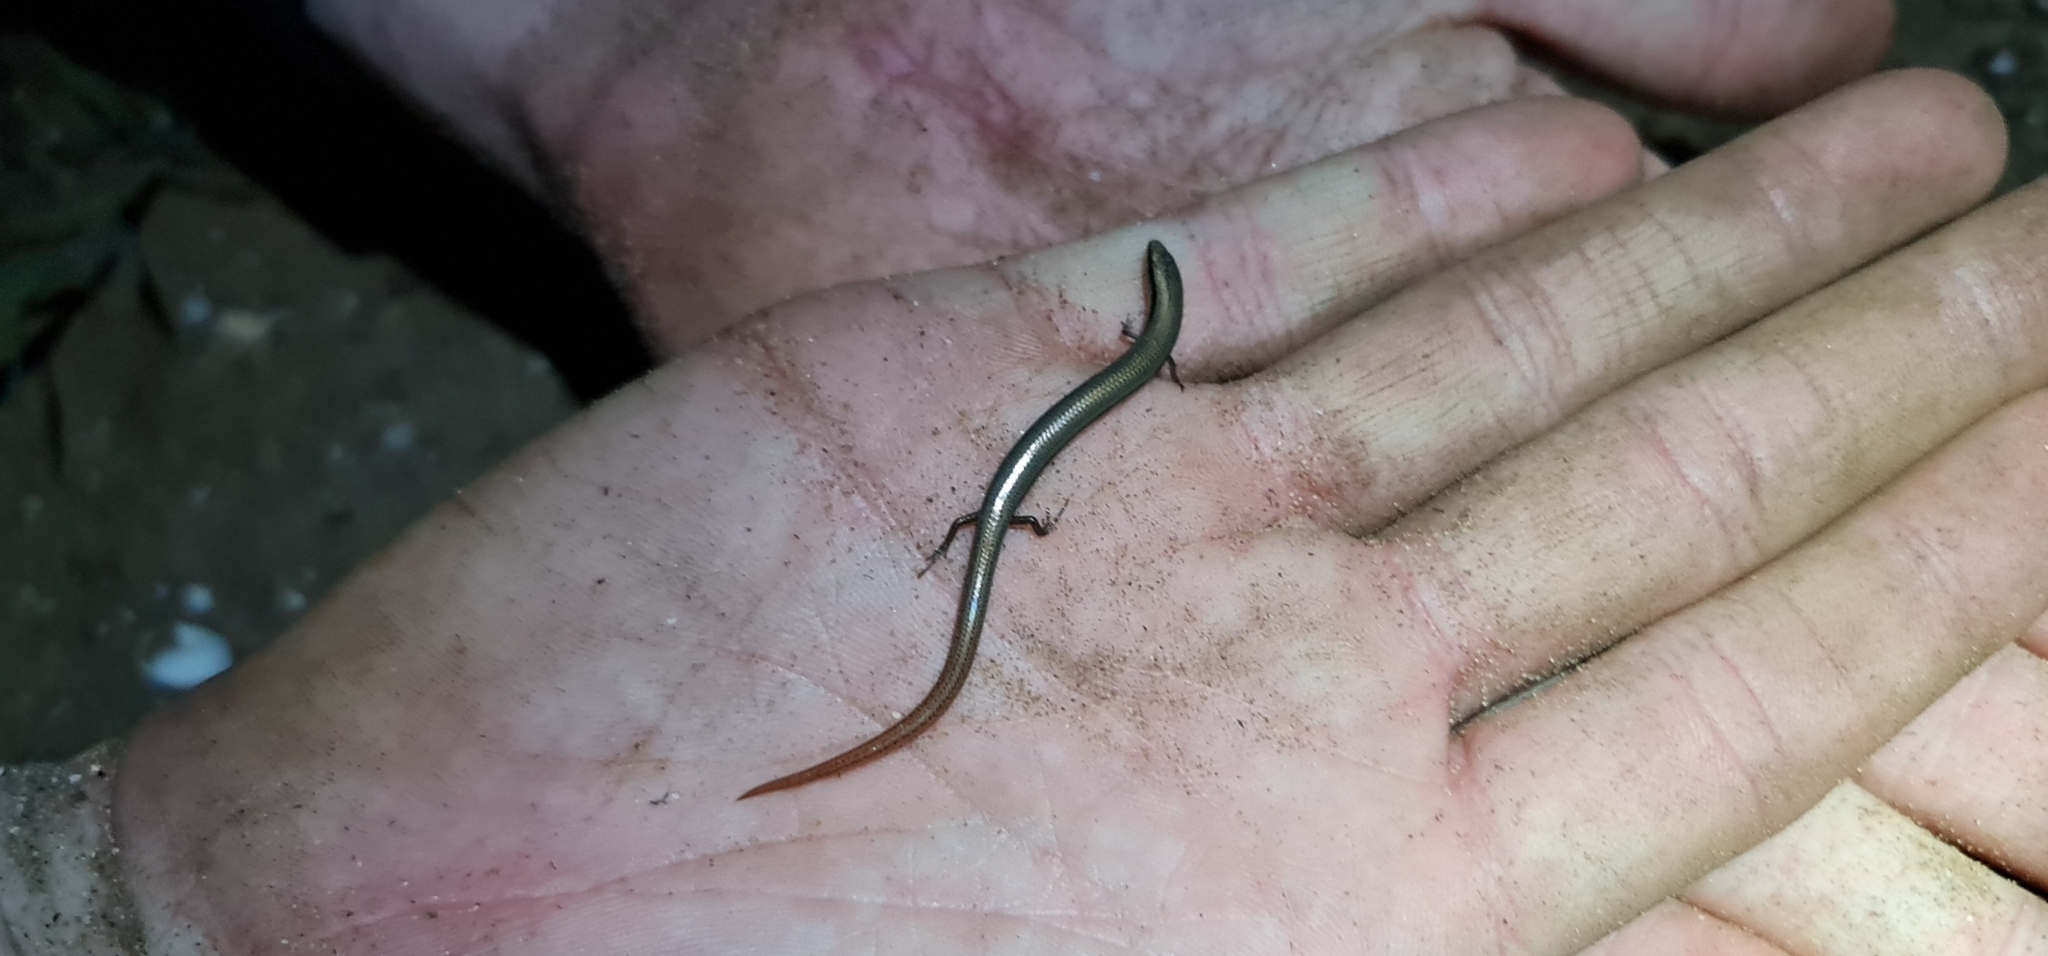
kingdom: Animalia
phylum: Chordata
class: Squamata
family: Scincidae
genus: Lerista
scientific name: Lerista dorsalis
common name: Southern slider
